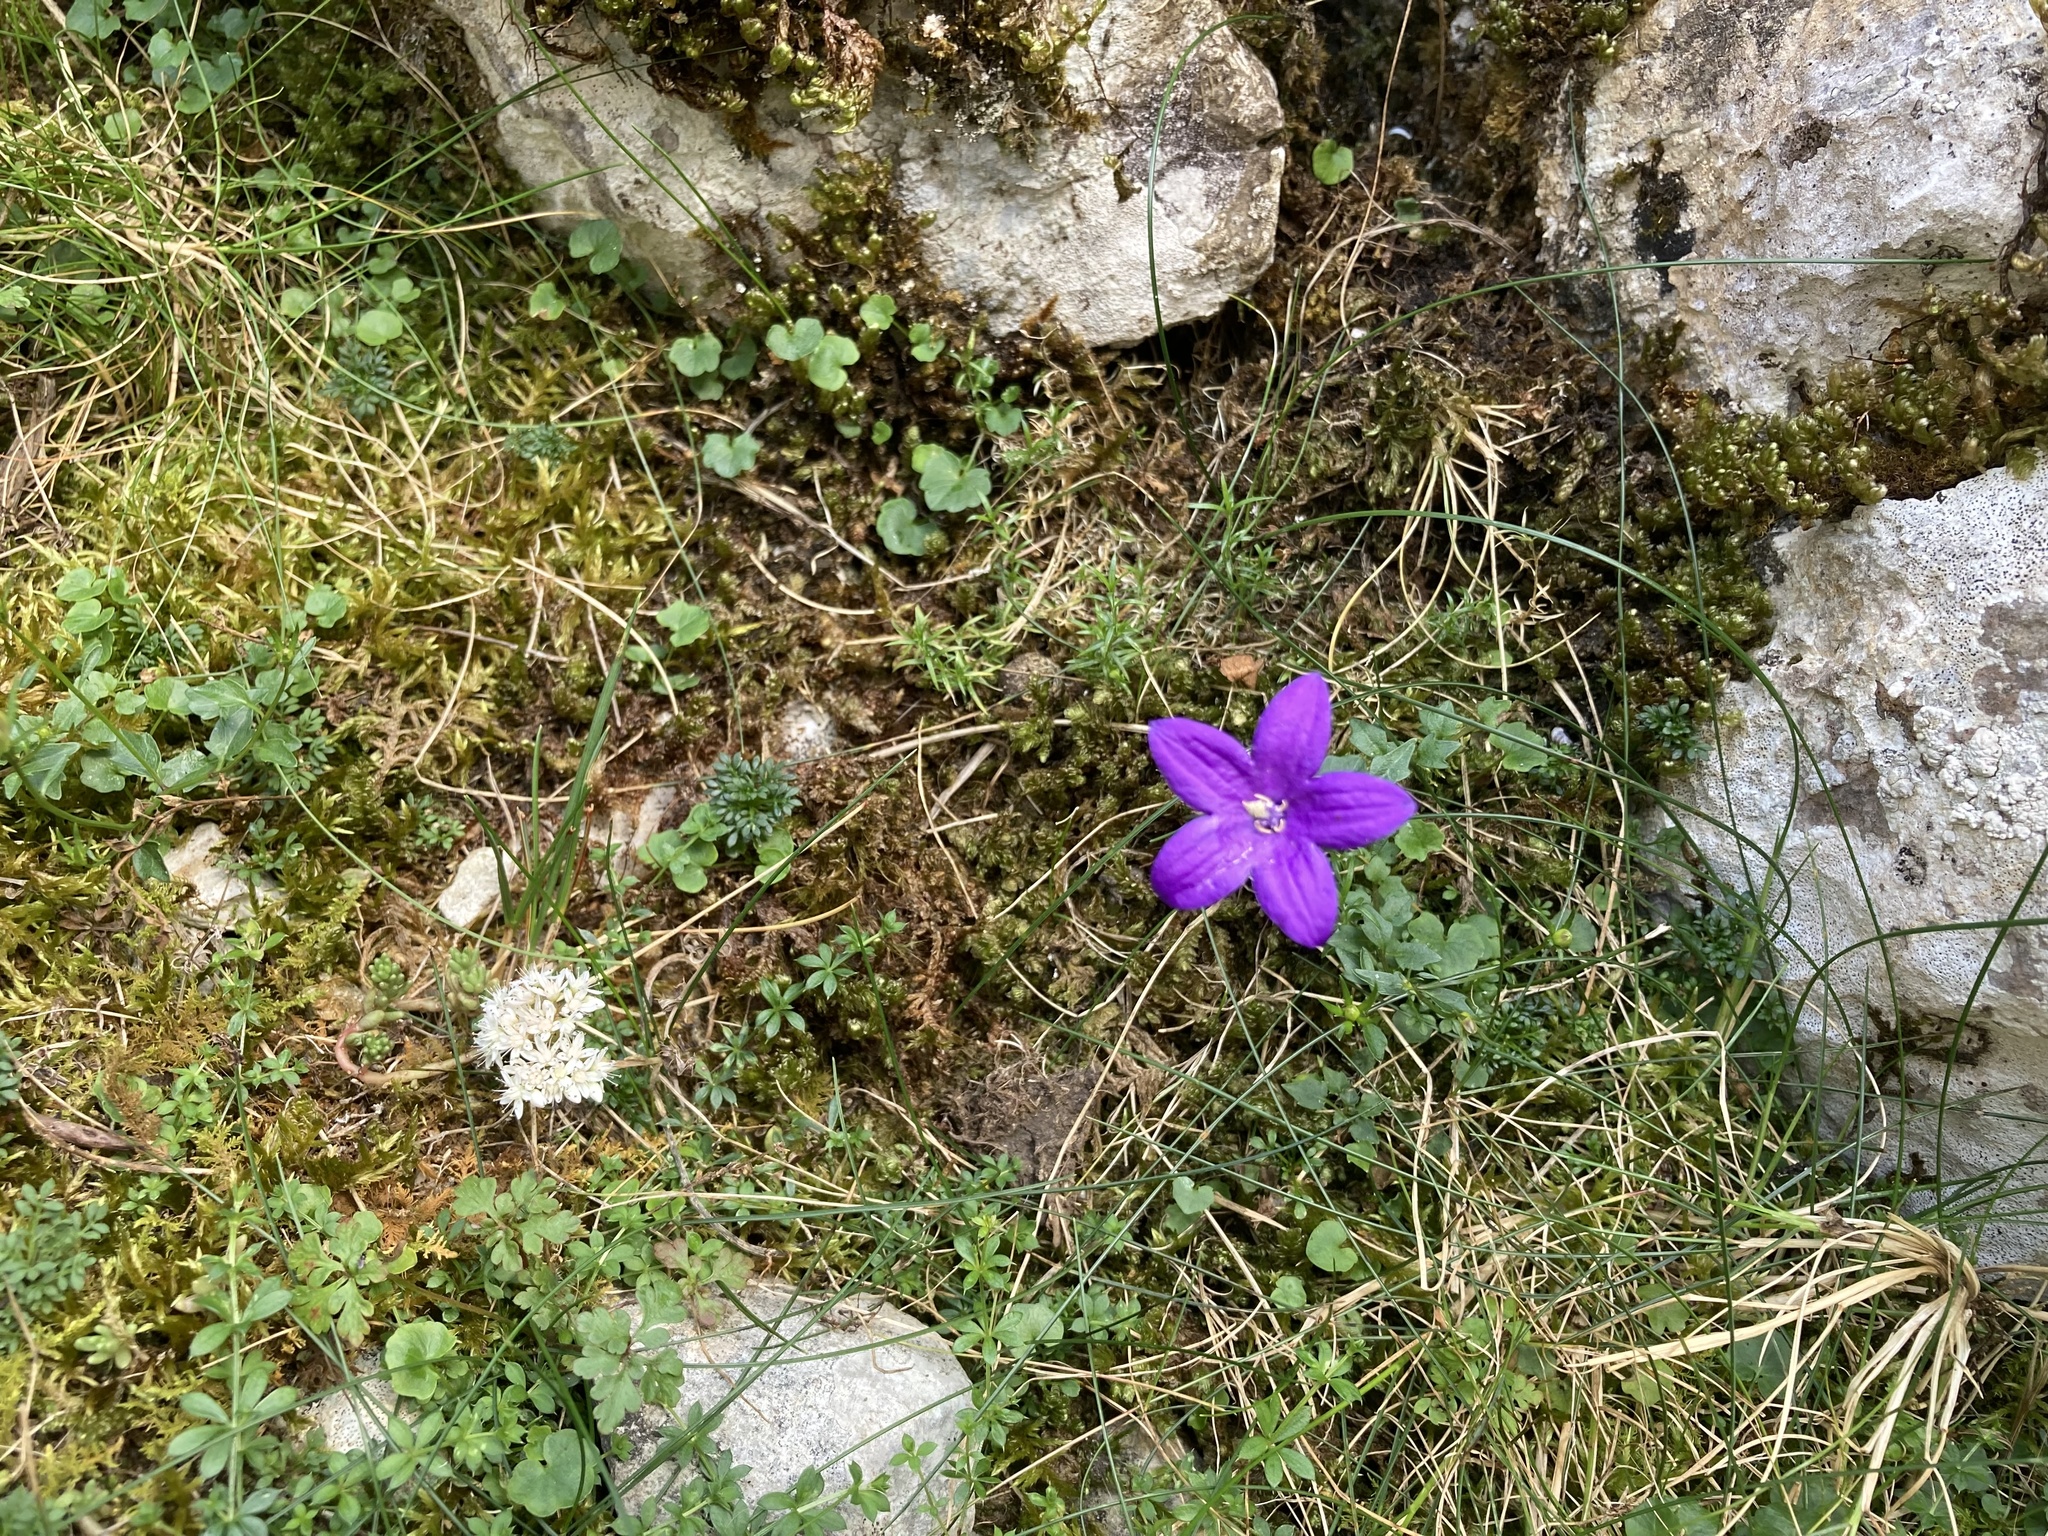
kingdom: Plantae
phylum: Tracheophyta
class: Magnoliopsida
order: Asterales
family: Campanulaceae
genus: Campanula
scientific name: Campanula arvatica
